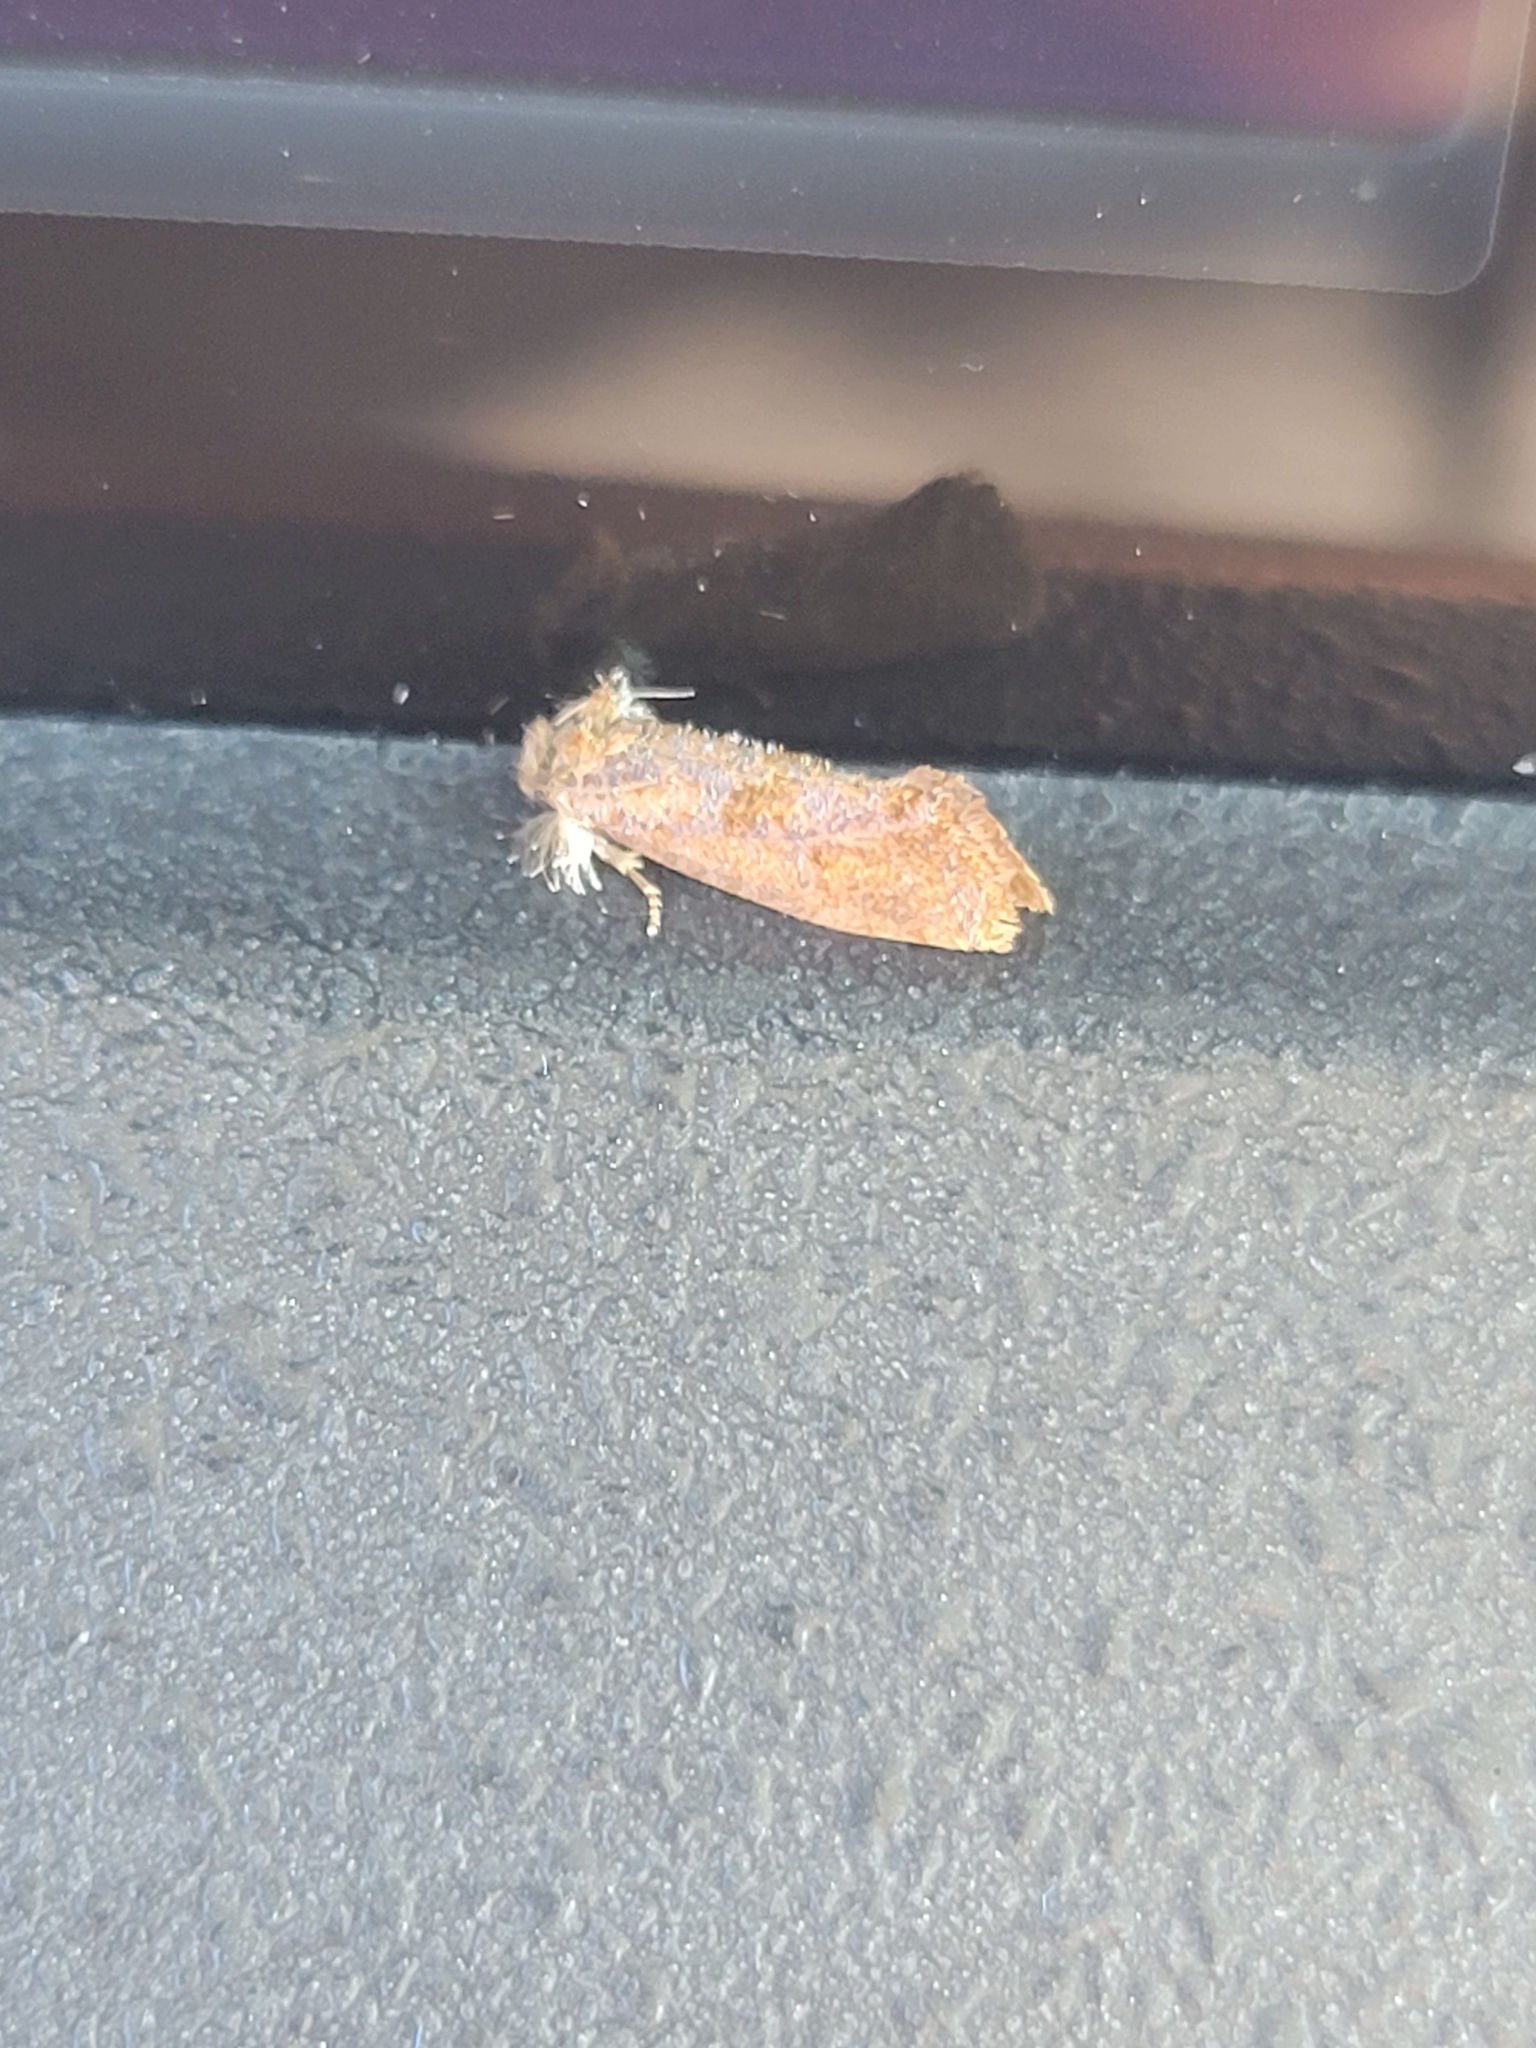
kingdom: Animalia
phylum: Arthropoda
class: Insecta
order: Lepidoptera
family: Tineidae
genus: Acrolophus
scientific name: Acrolophus panamae
